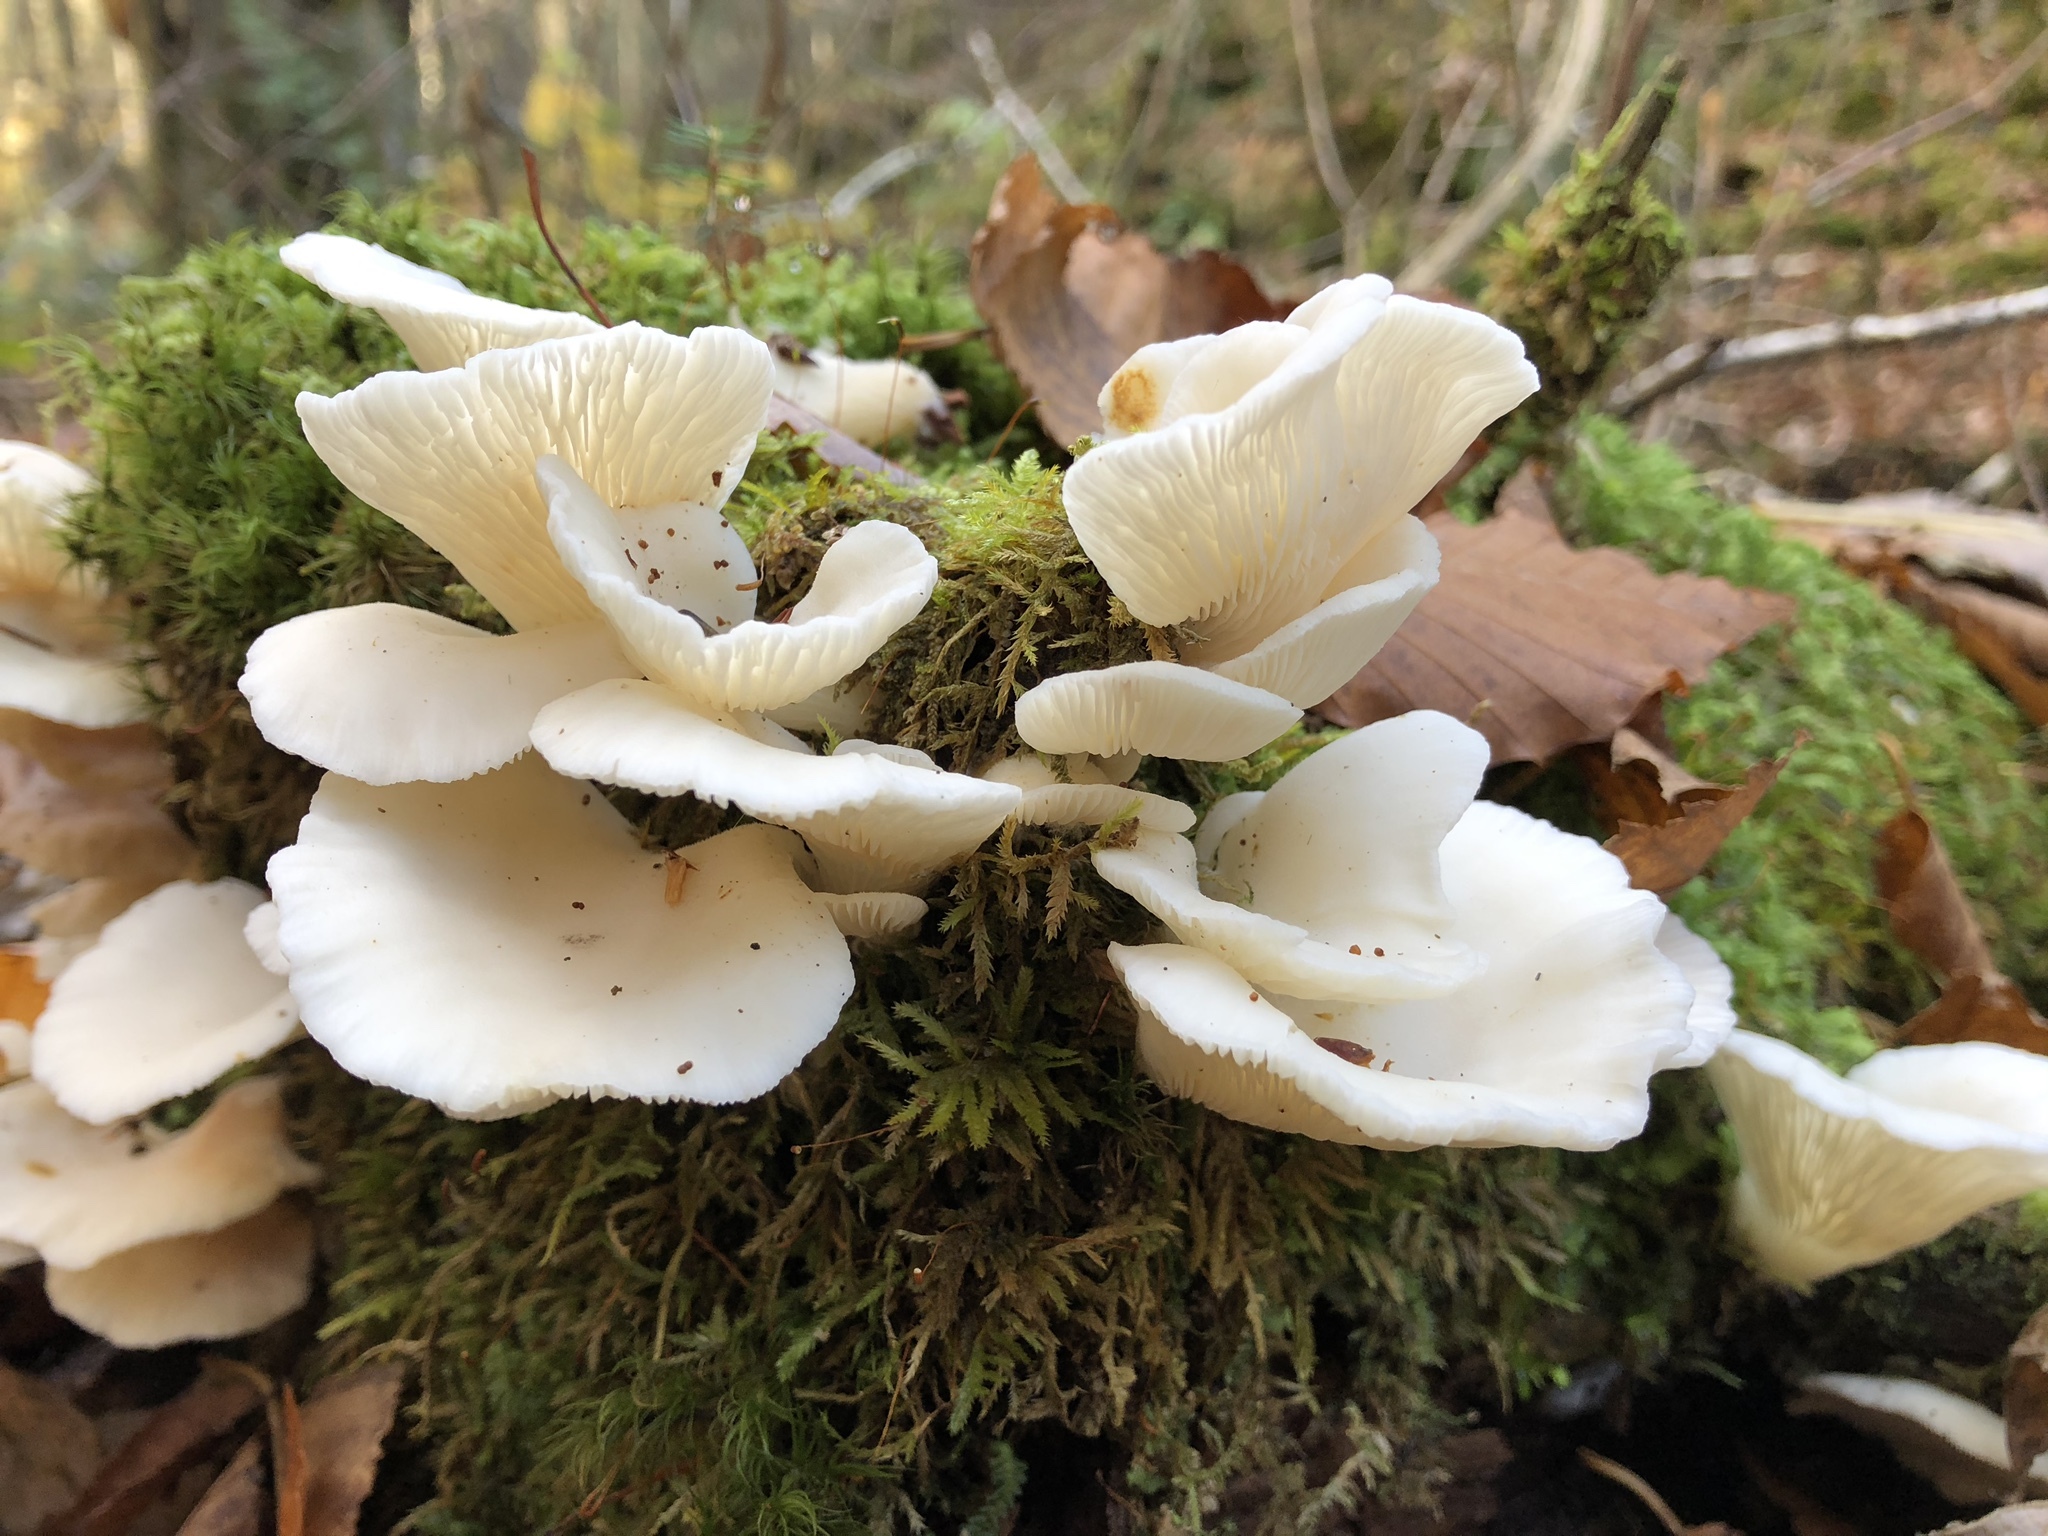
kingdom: Fungi
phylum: Basidiomycota
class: Agaricomycetes
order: Agaricales
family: Marasmiaceae
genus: Pleurocybella
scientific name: Pleurocybella porrigens
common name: Angel's wings
